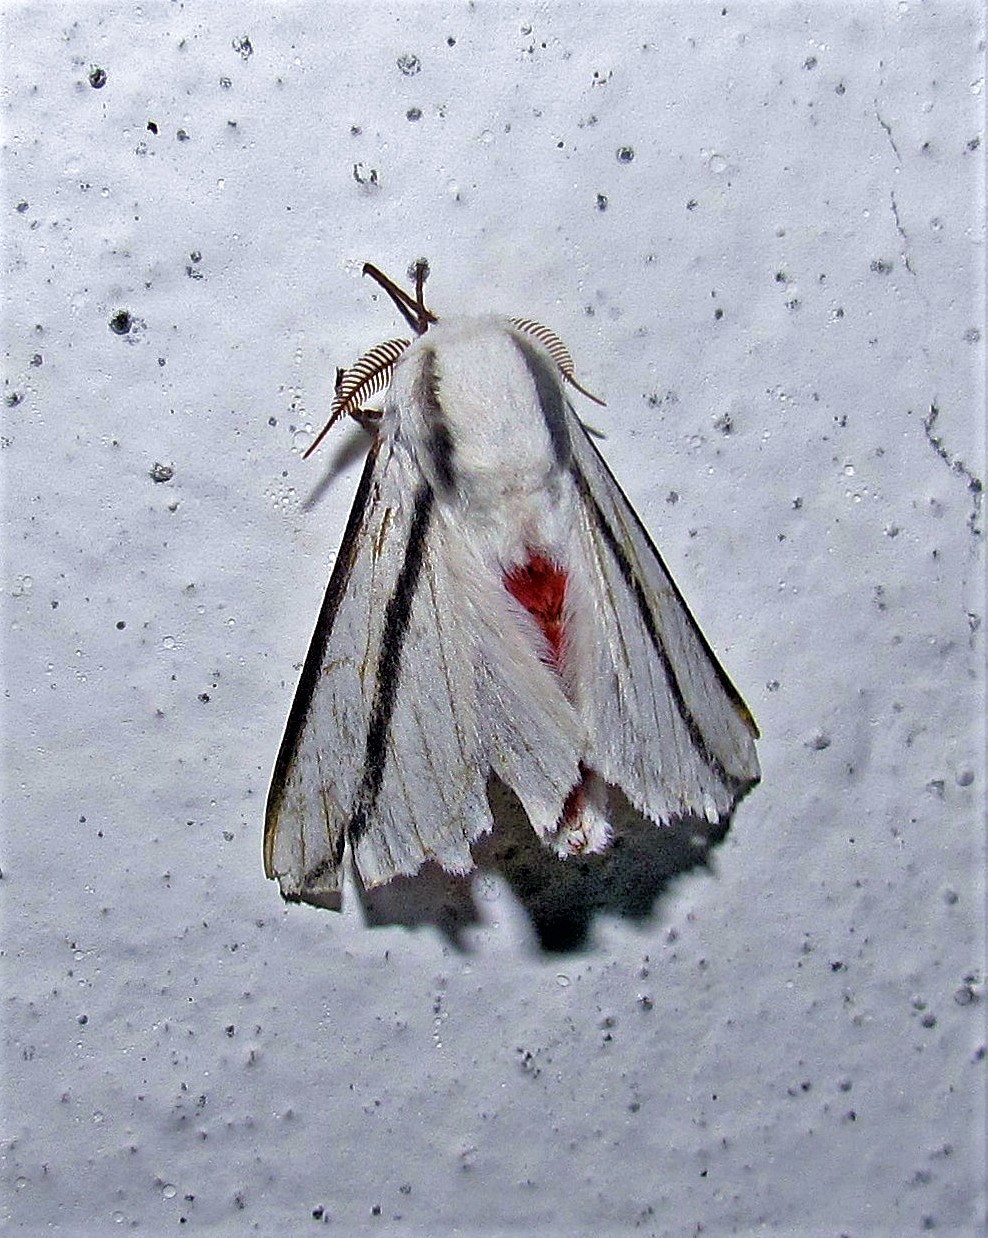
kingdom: Animalia
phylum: Arthropoda
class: Insecta
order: Lepidoptera
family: Saturniidae
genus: Giacomellia
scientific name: Giacomellia bilineata
